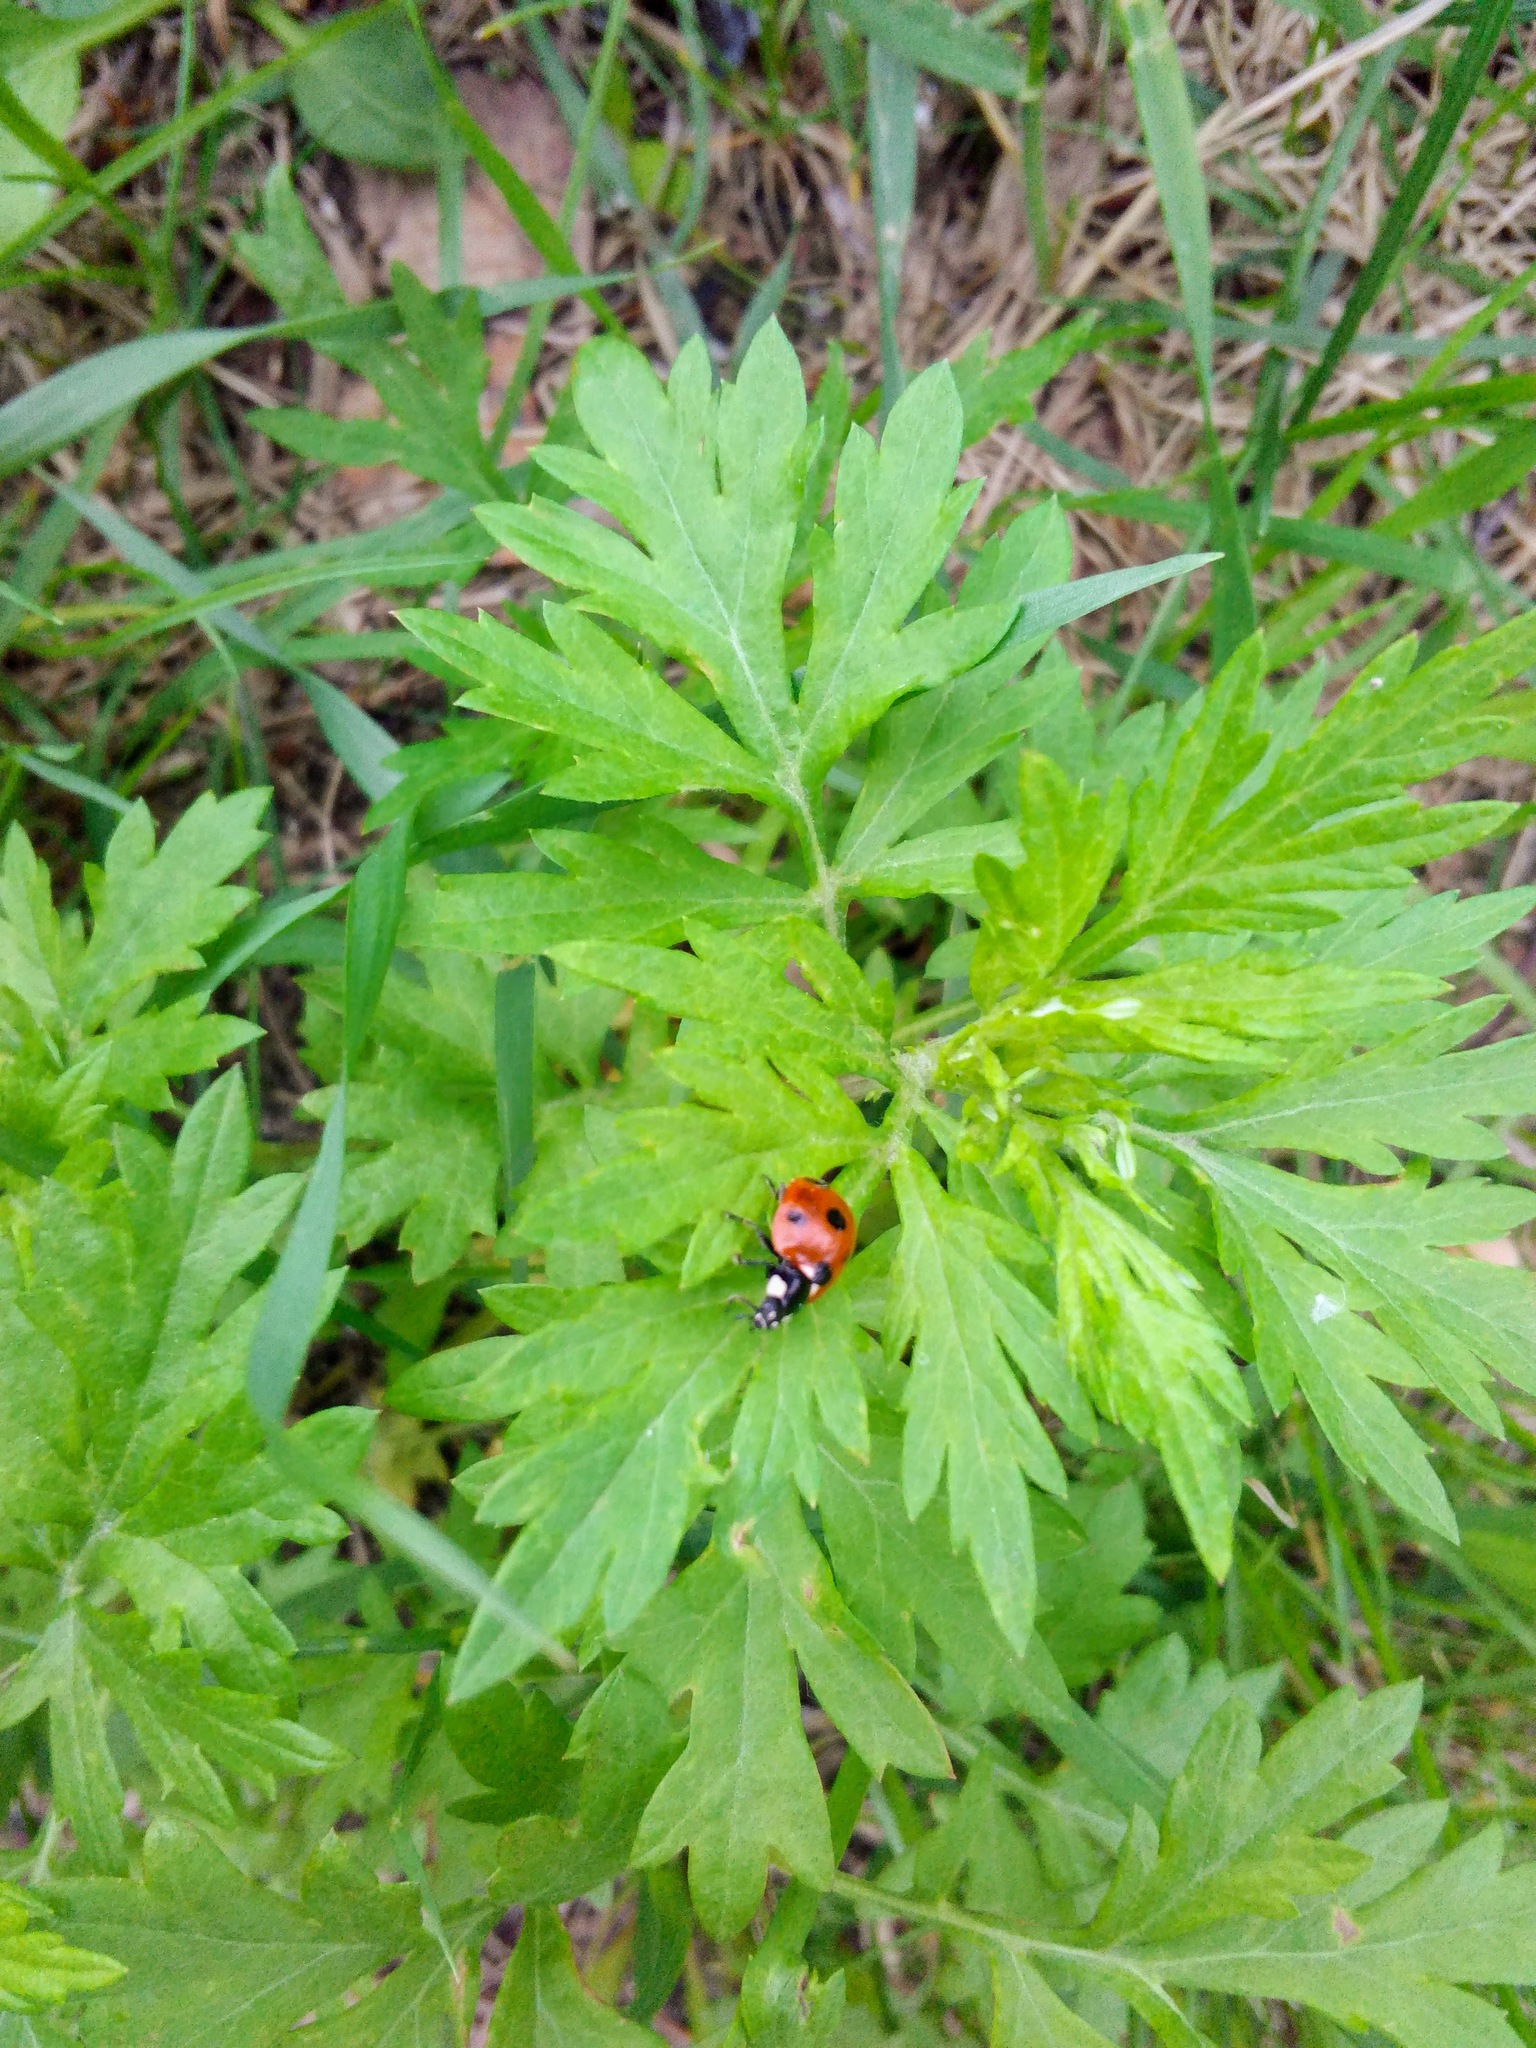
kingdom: Animalia
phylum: Arthropoda
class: Insecta
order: Coleoptera
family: Coccinellidae
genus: Coccinella
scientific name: Coccinella septempunctata
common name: Sevenspotted lady beetle
